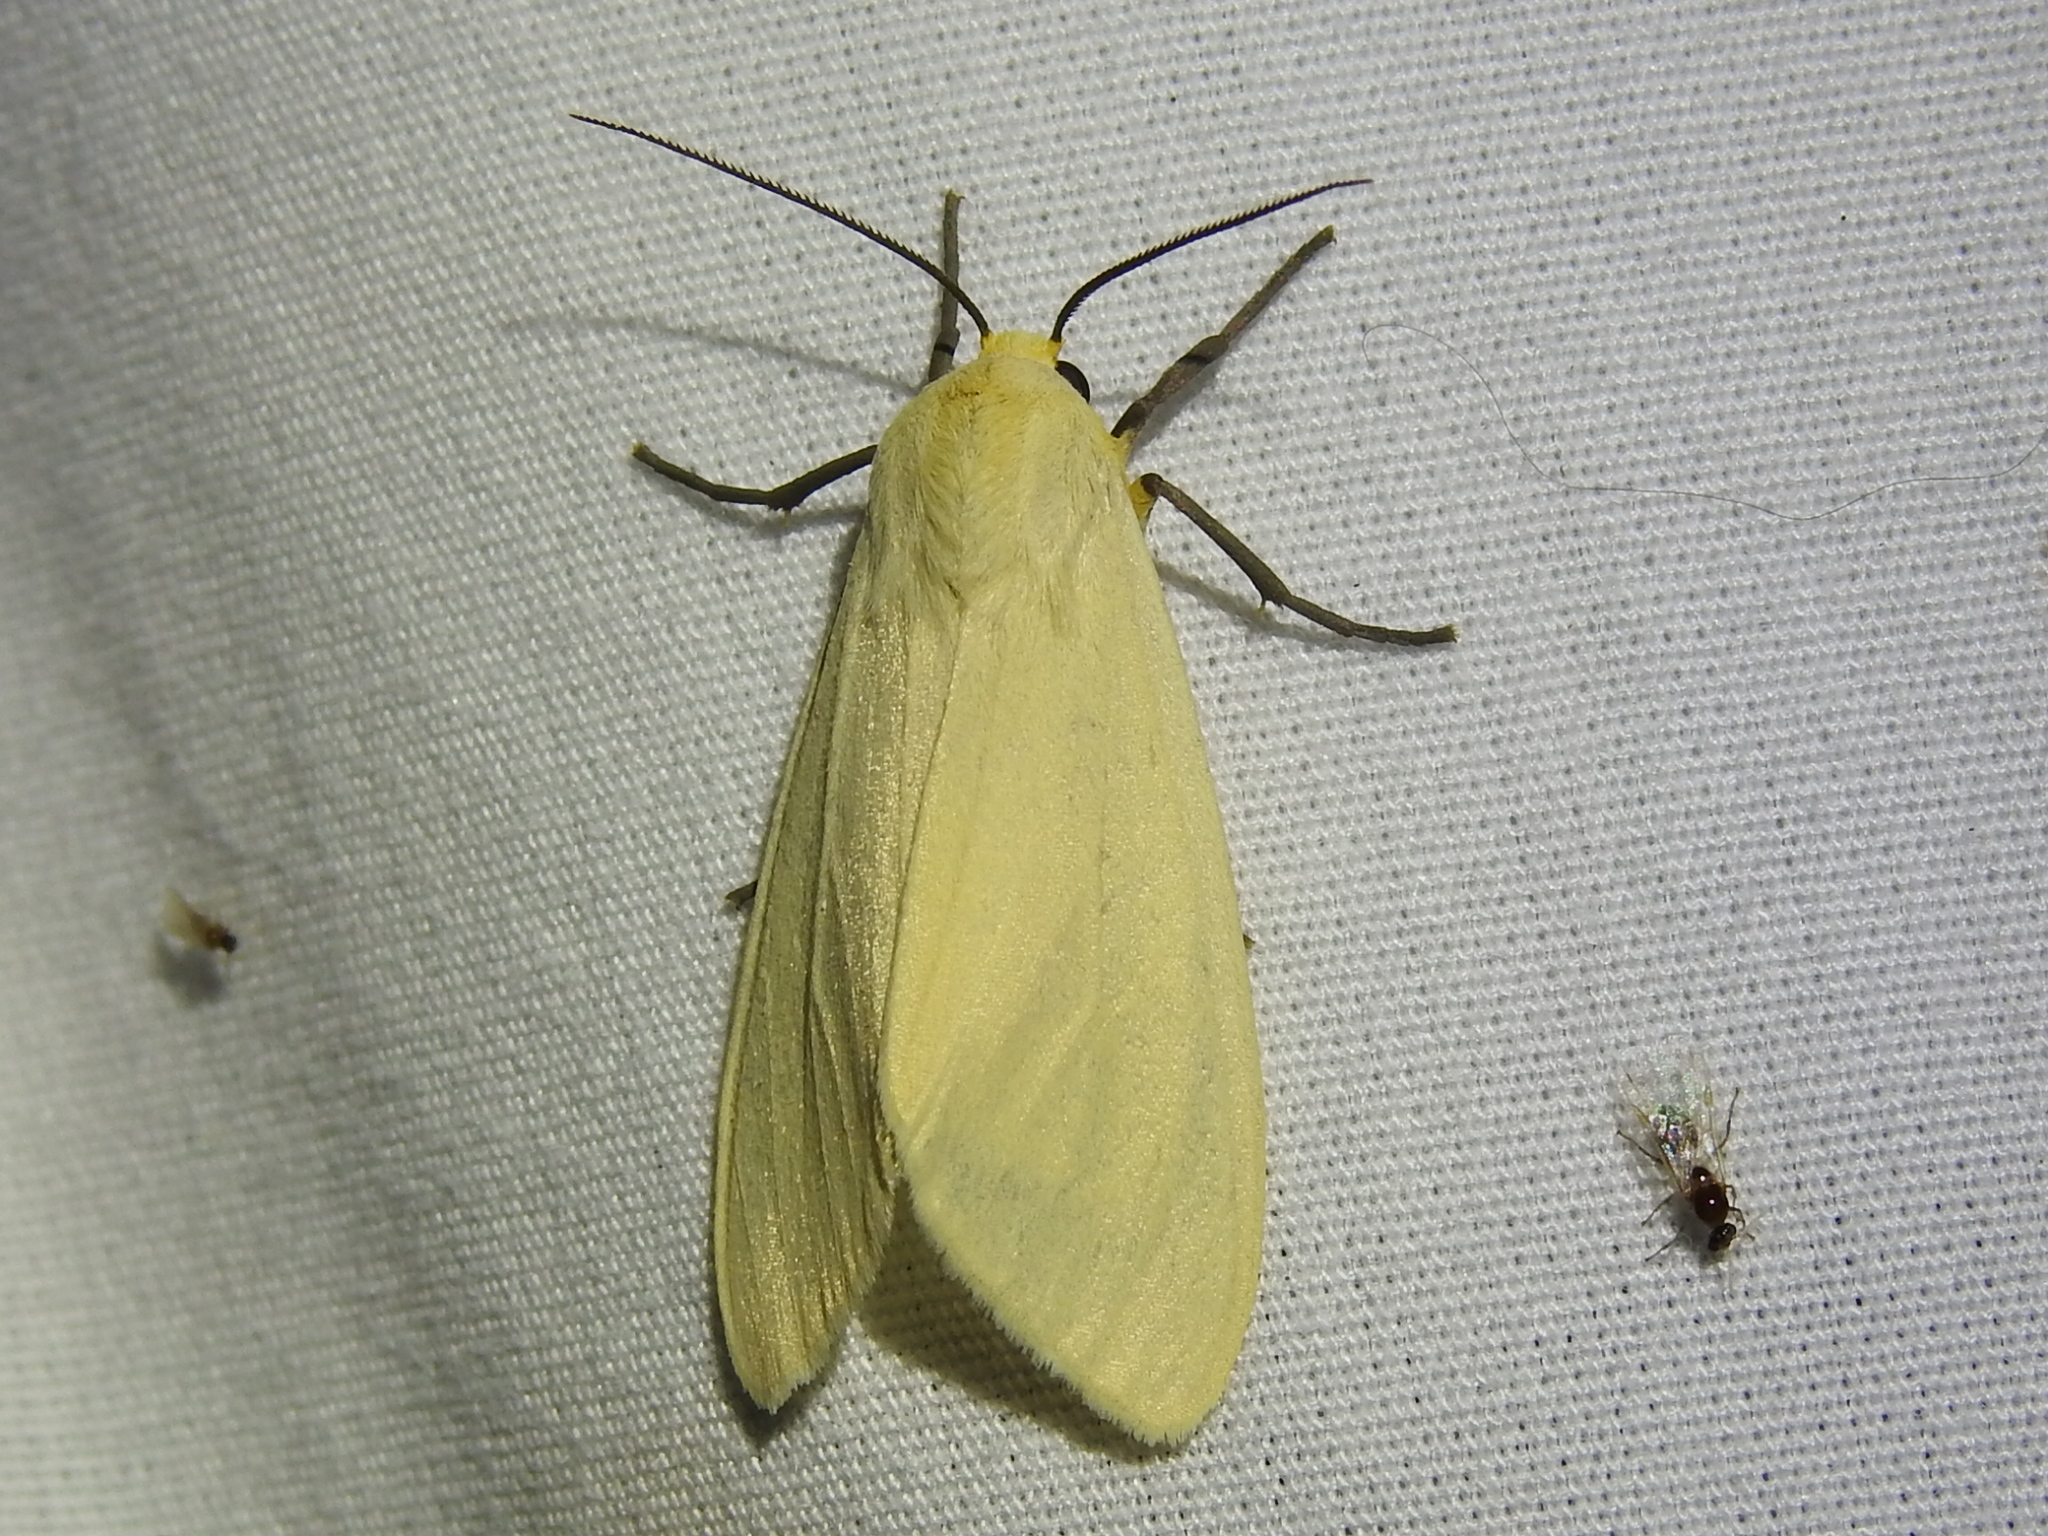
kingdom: Animalia
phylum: Arthropoda
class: Insecta
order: Lepidoptera
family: Erebidae
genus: Pareuchaetes
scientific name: Pareuchaetes insulata
